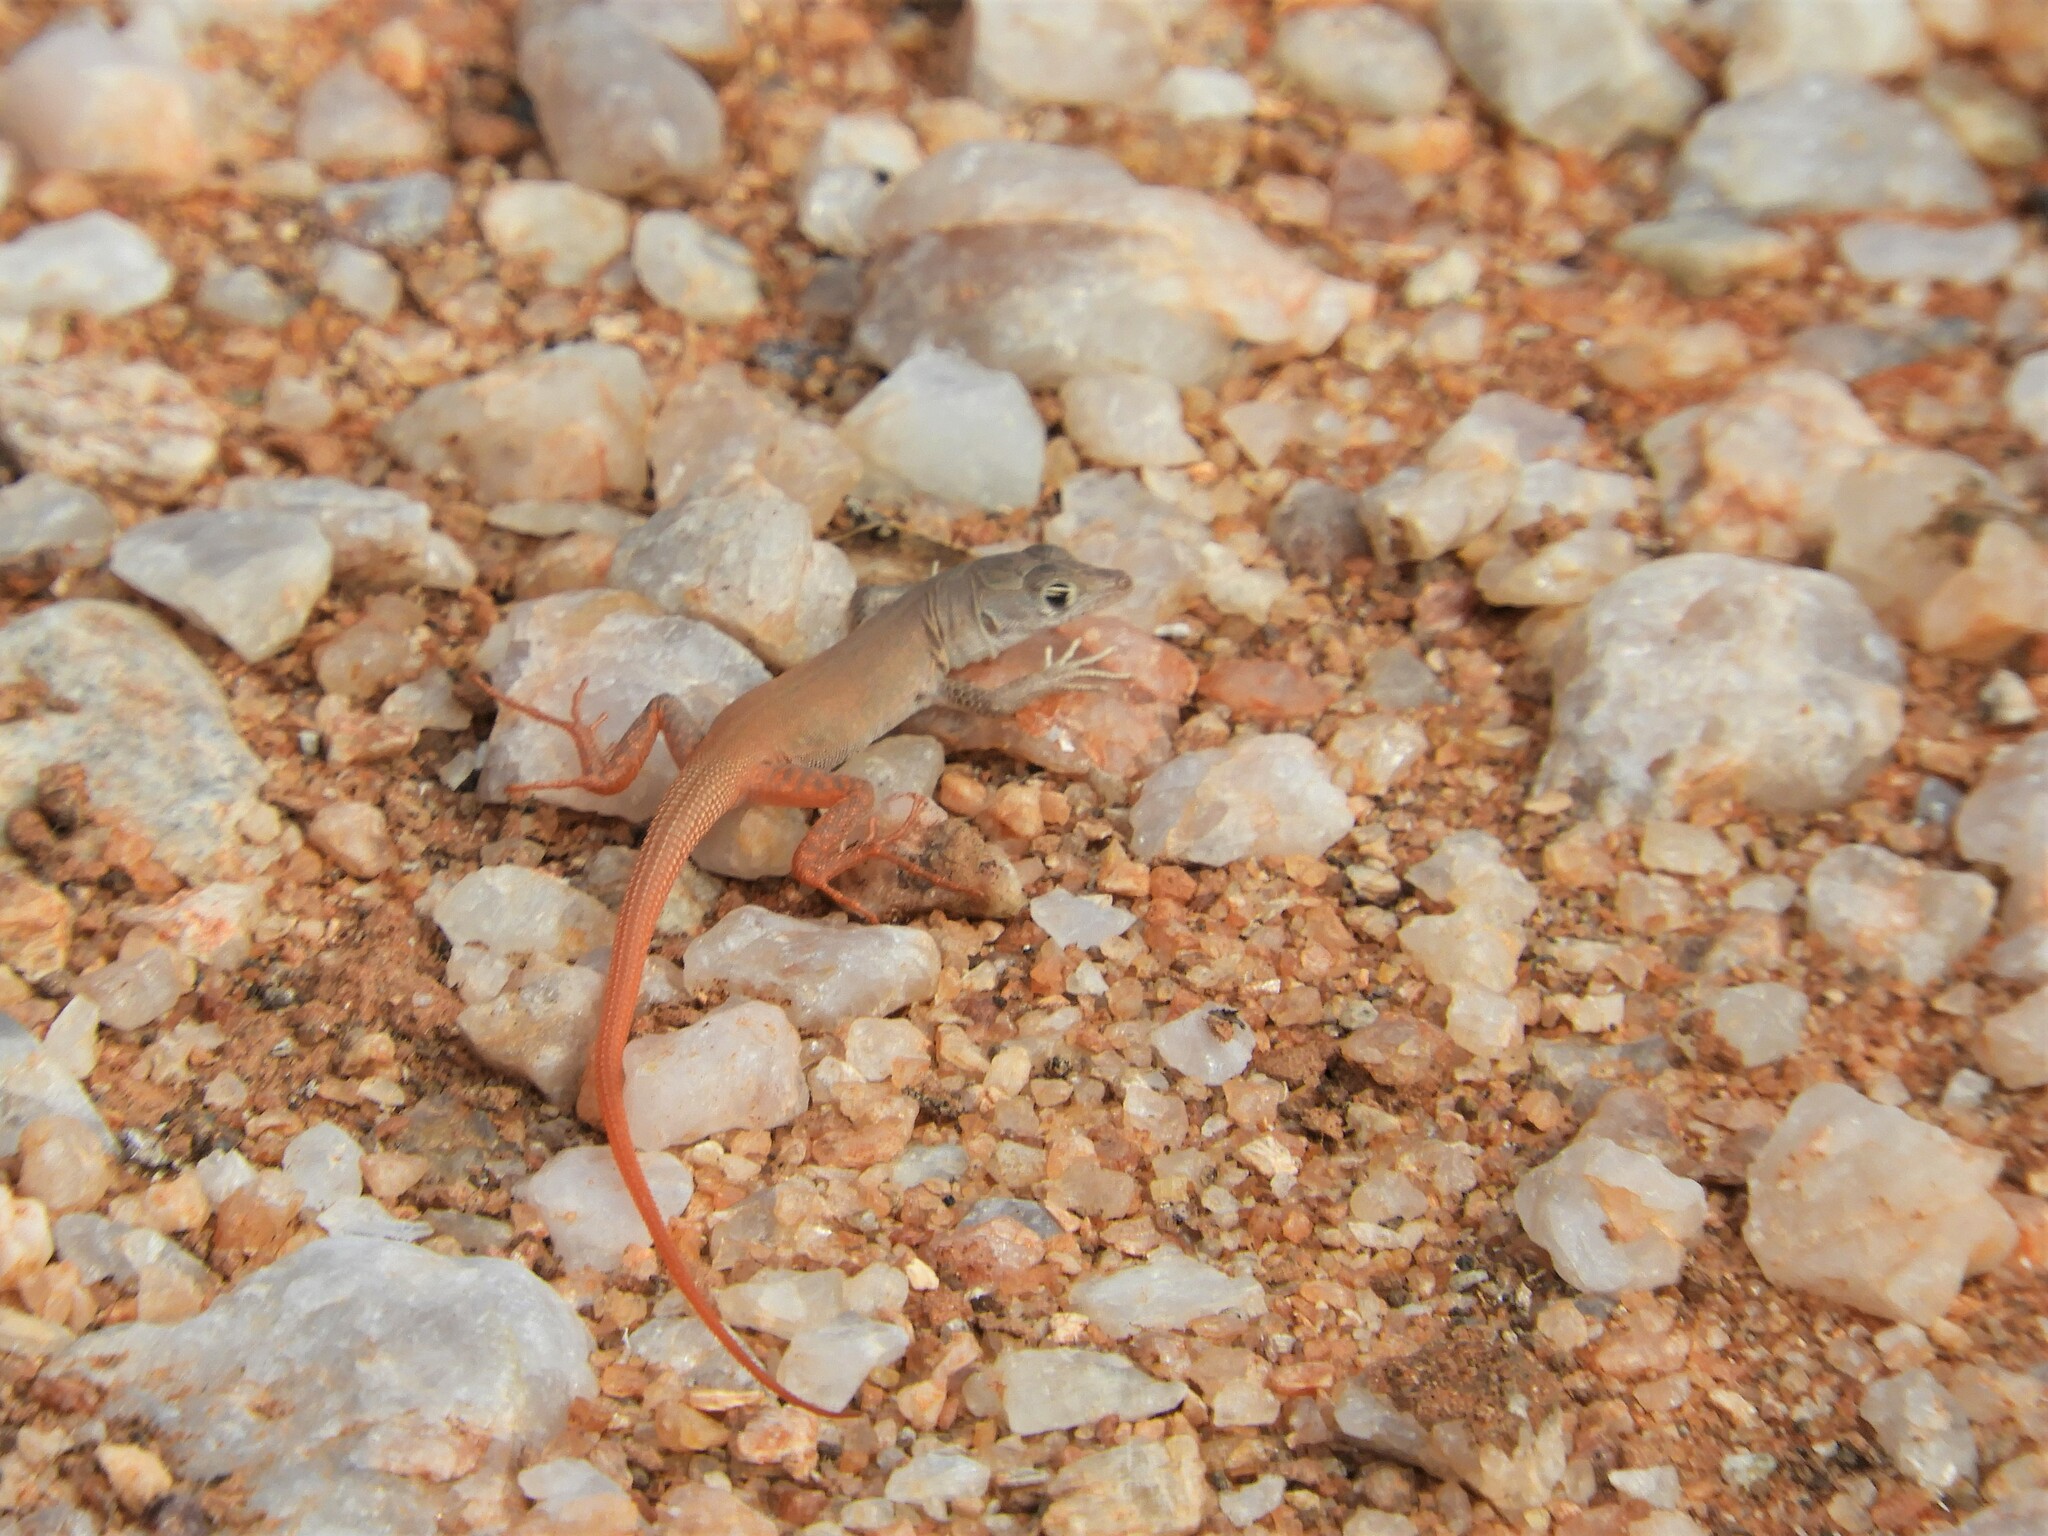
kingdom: Animalia
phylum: Chordata
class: Squamata
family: Lacertidae
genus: Pedioplanis
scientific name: Pedioplanis inornata
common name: Plain sand lizard
